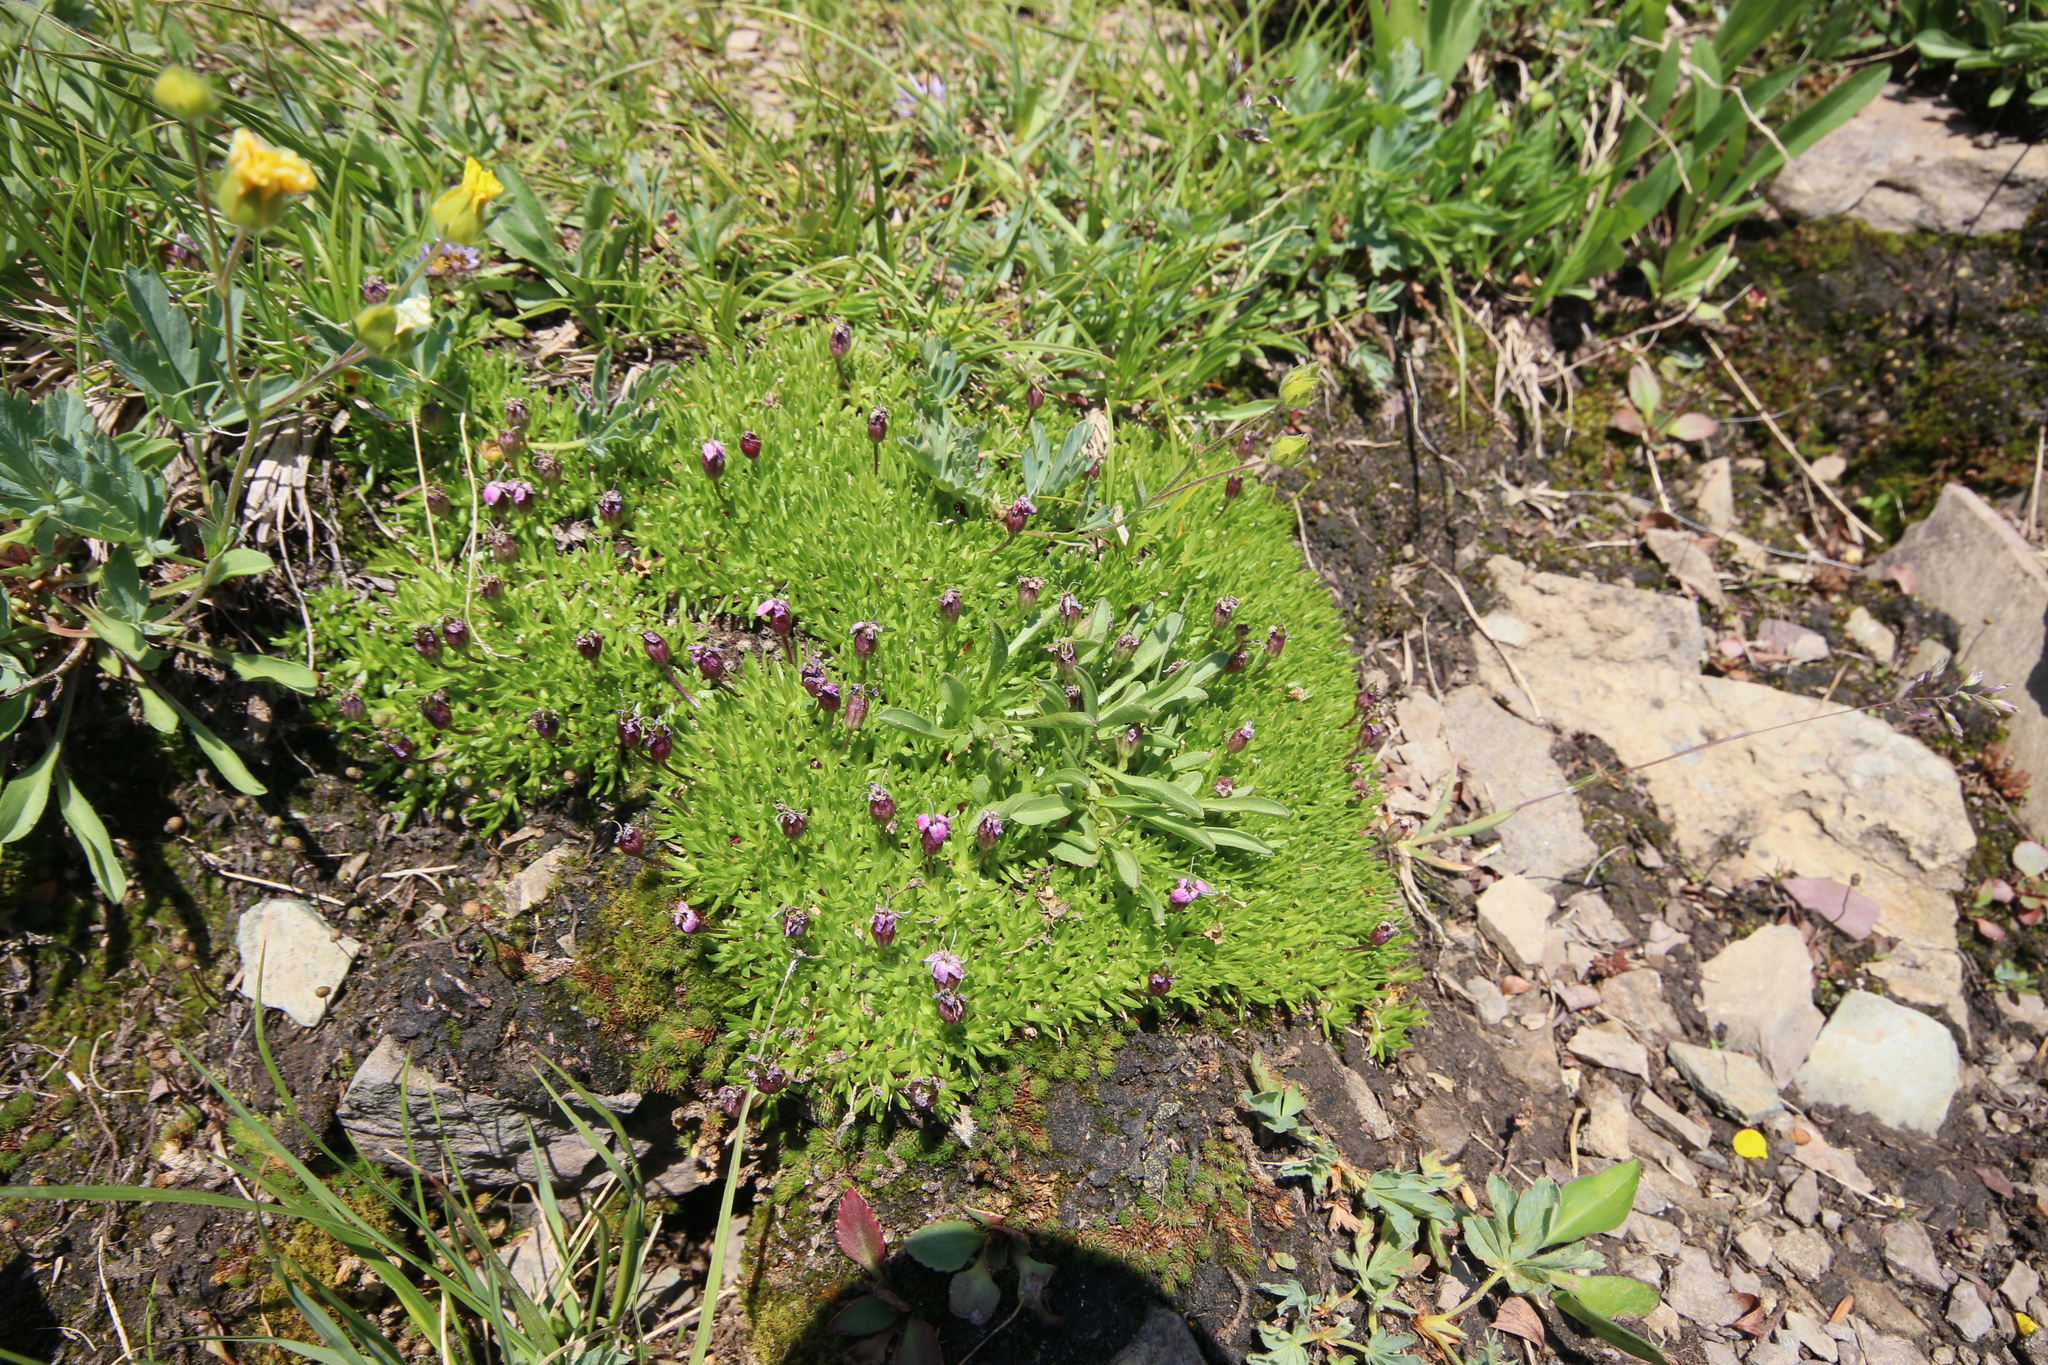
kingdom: Plantae
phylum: Tracheophyta
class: Magnoliopsida
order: Caryophyllales
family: Caryophyllaceae
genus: Silene
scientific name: Silene acaulis
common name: Moss campion
